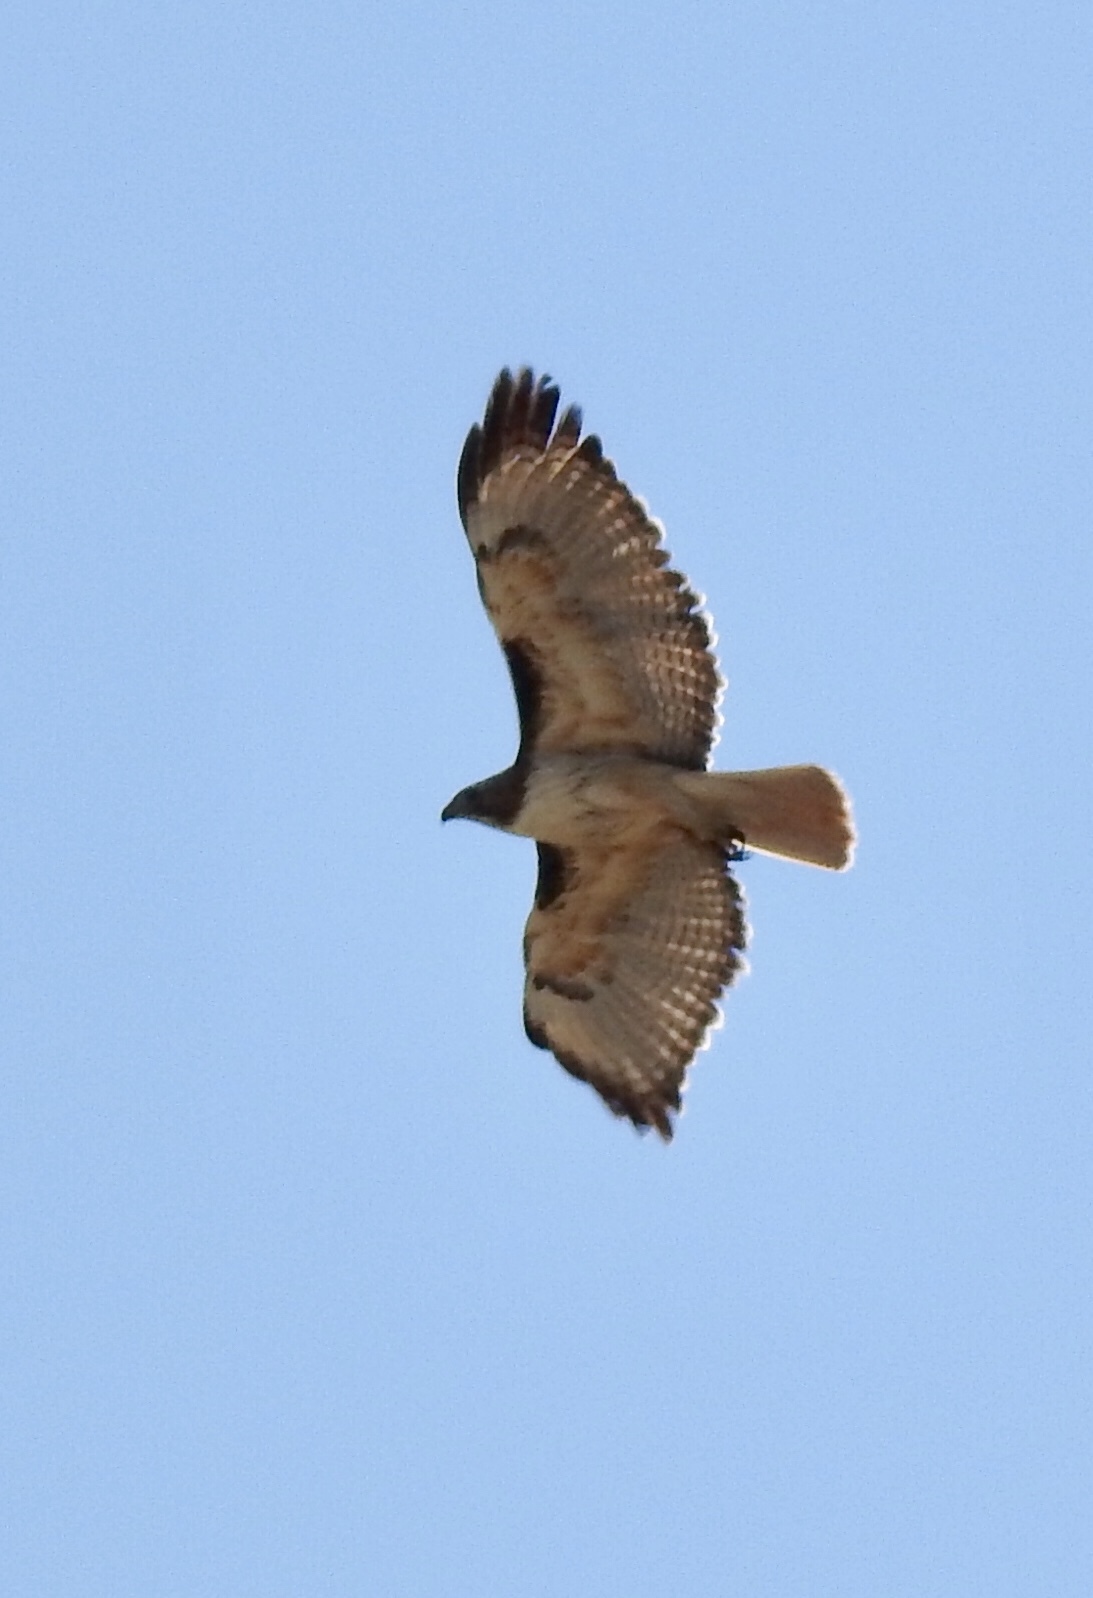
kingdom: Animalia
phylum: Chordata
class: Aves
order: Accipitriformes
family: Accipitridae
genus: Buteo
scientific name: Buteo jamaicensis
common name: Red-tailed hawk
